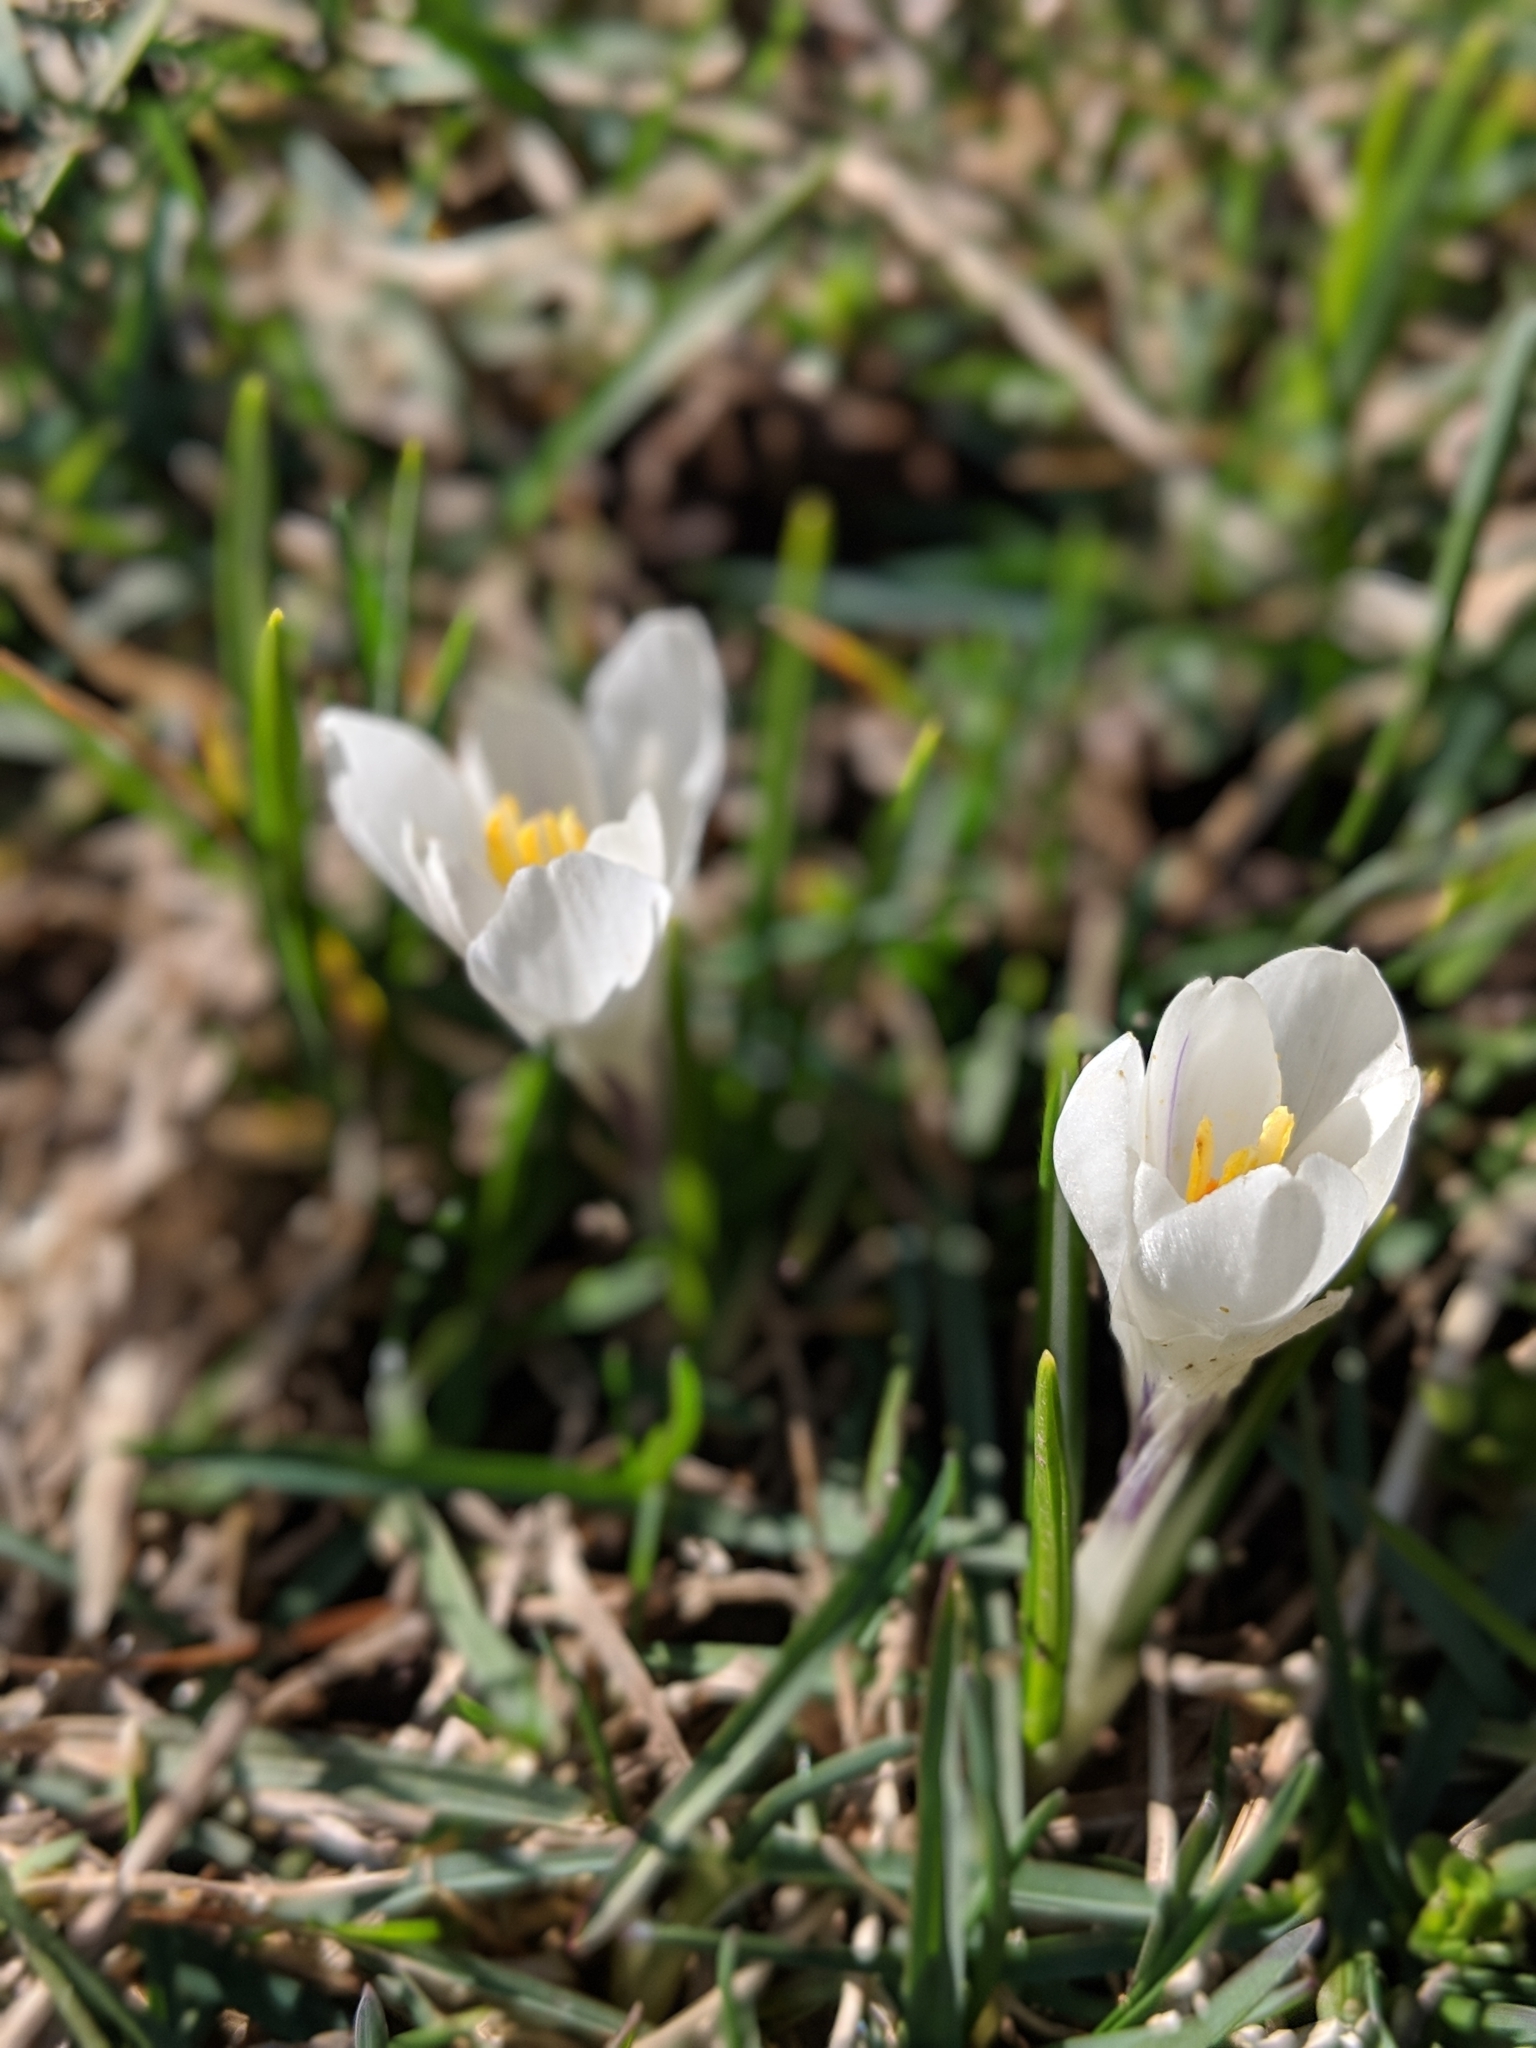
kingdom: Plantae
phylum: Tracheophyta
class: Liliopsida
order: Asparagales
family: Iridaceae
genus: Crocus
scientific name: Crocus vernus
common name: Spring crocus
